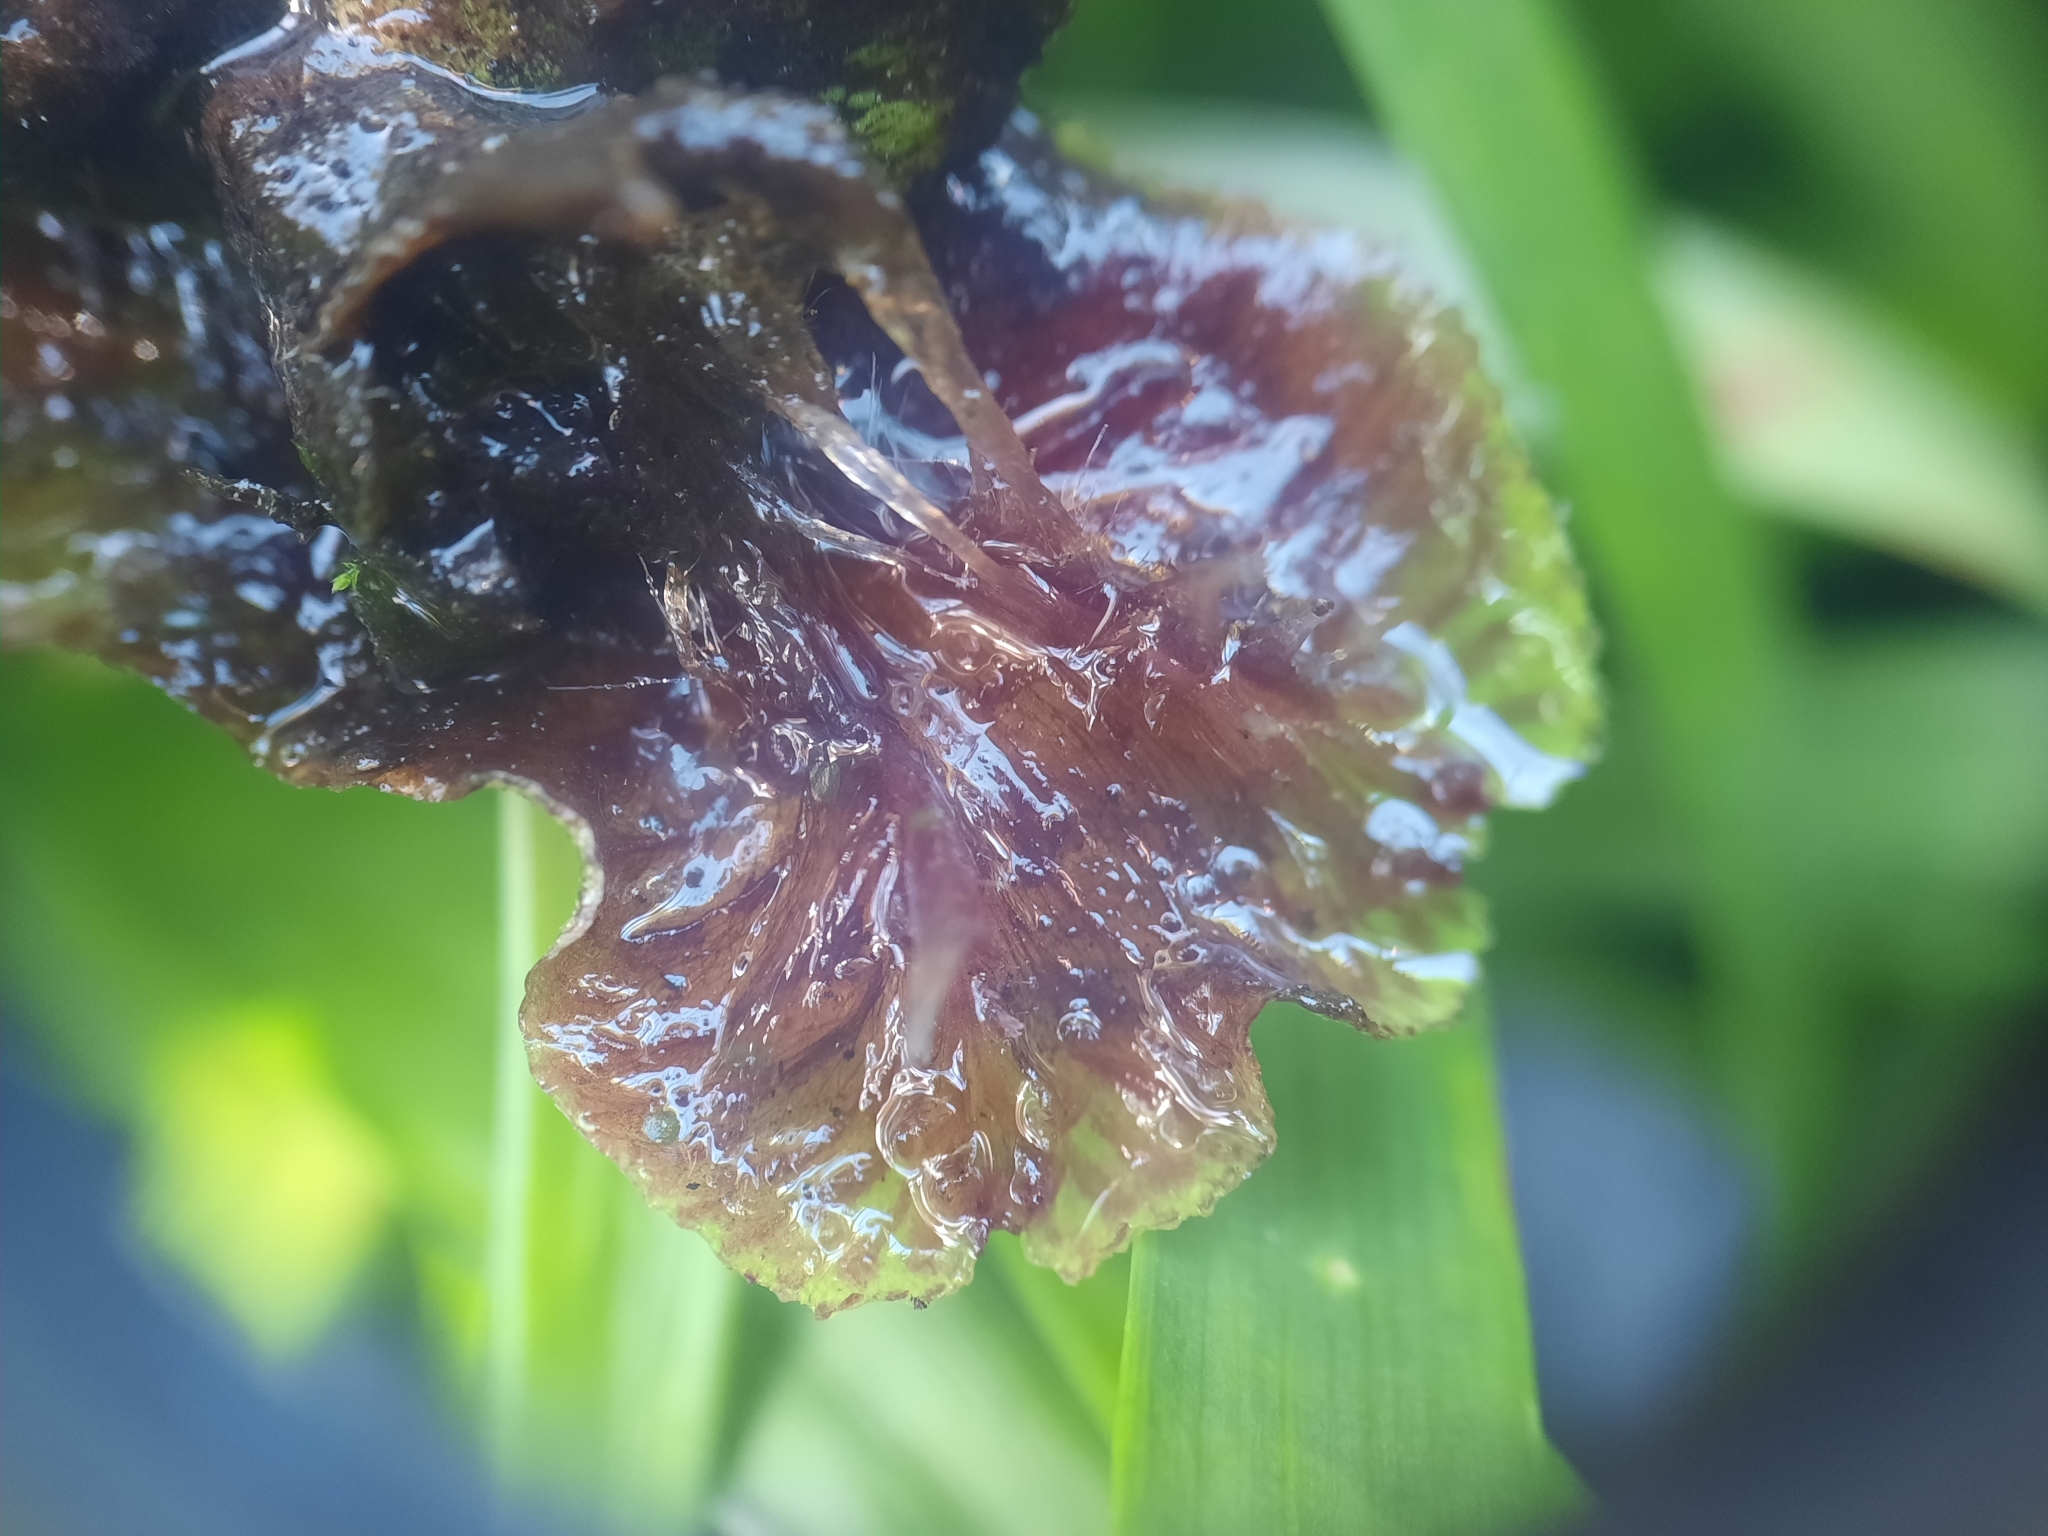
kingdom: Plantae
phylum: Marchantiophyta
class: Marchantiopsida
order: Marchantiales
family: Marchantiaceae
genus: Marchantia
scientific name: Marchantia polymorpha
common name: Common liverwort
